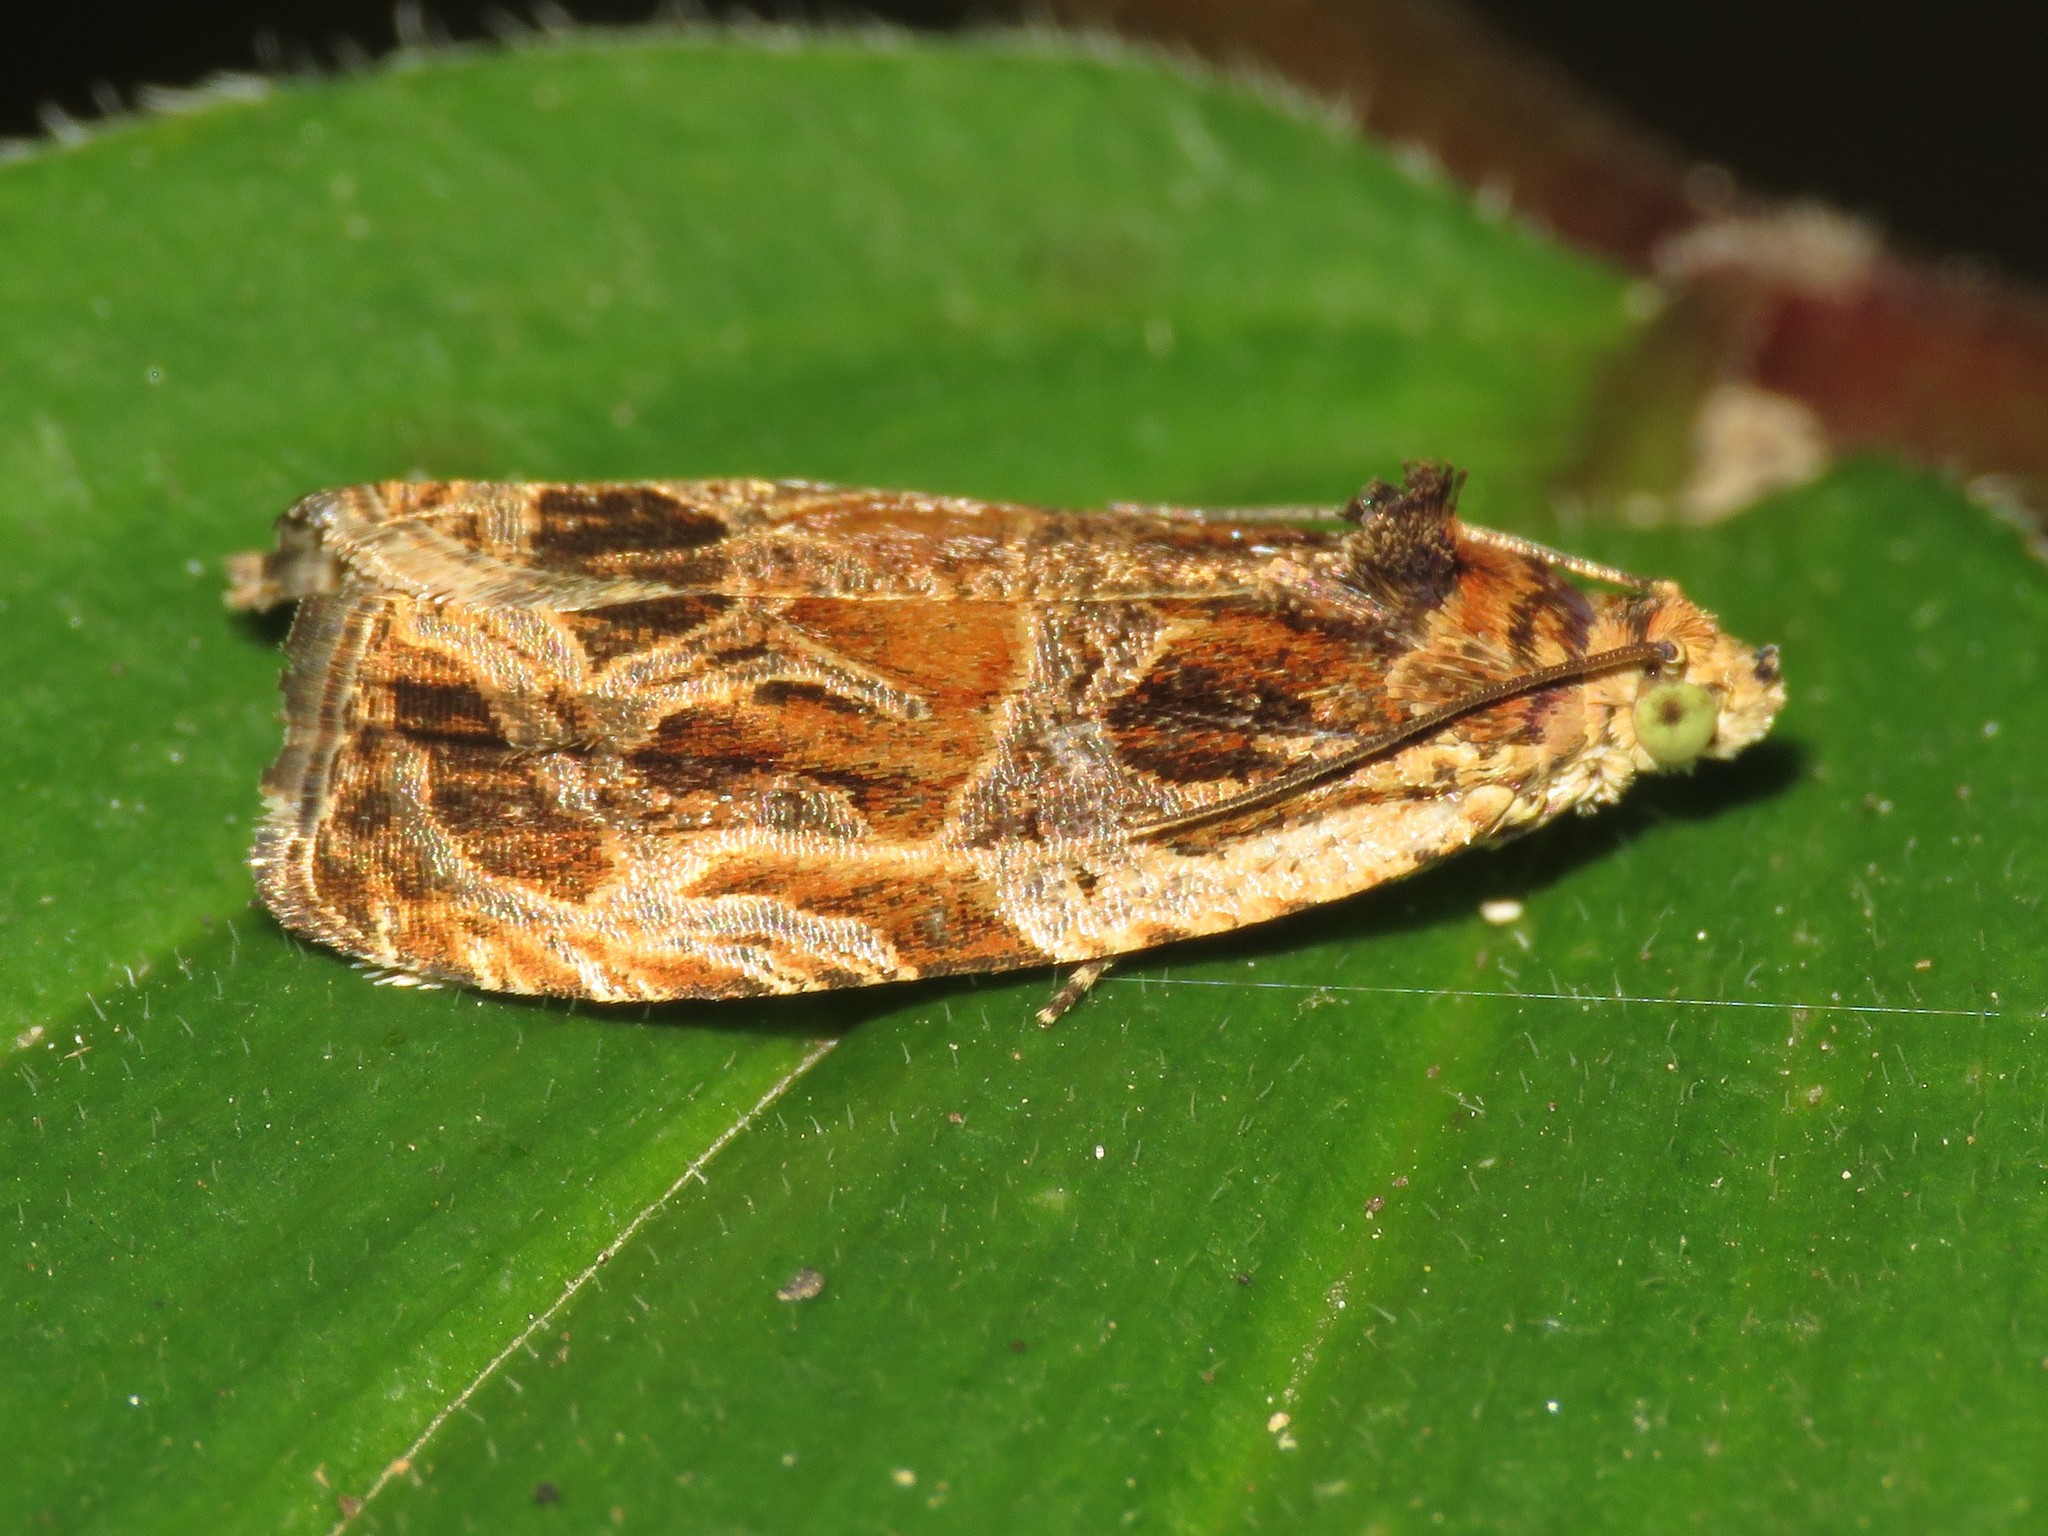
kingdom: Animalia
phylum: Arthropoda
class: Insecta
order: Lepidoptera
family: Tortricidae
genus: Olethreutes
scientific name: Olethreutes tilianum
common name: Basswood olethreutes moth
